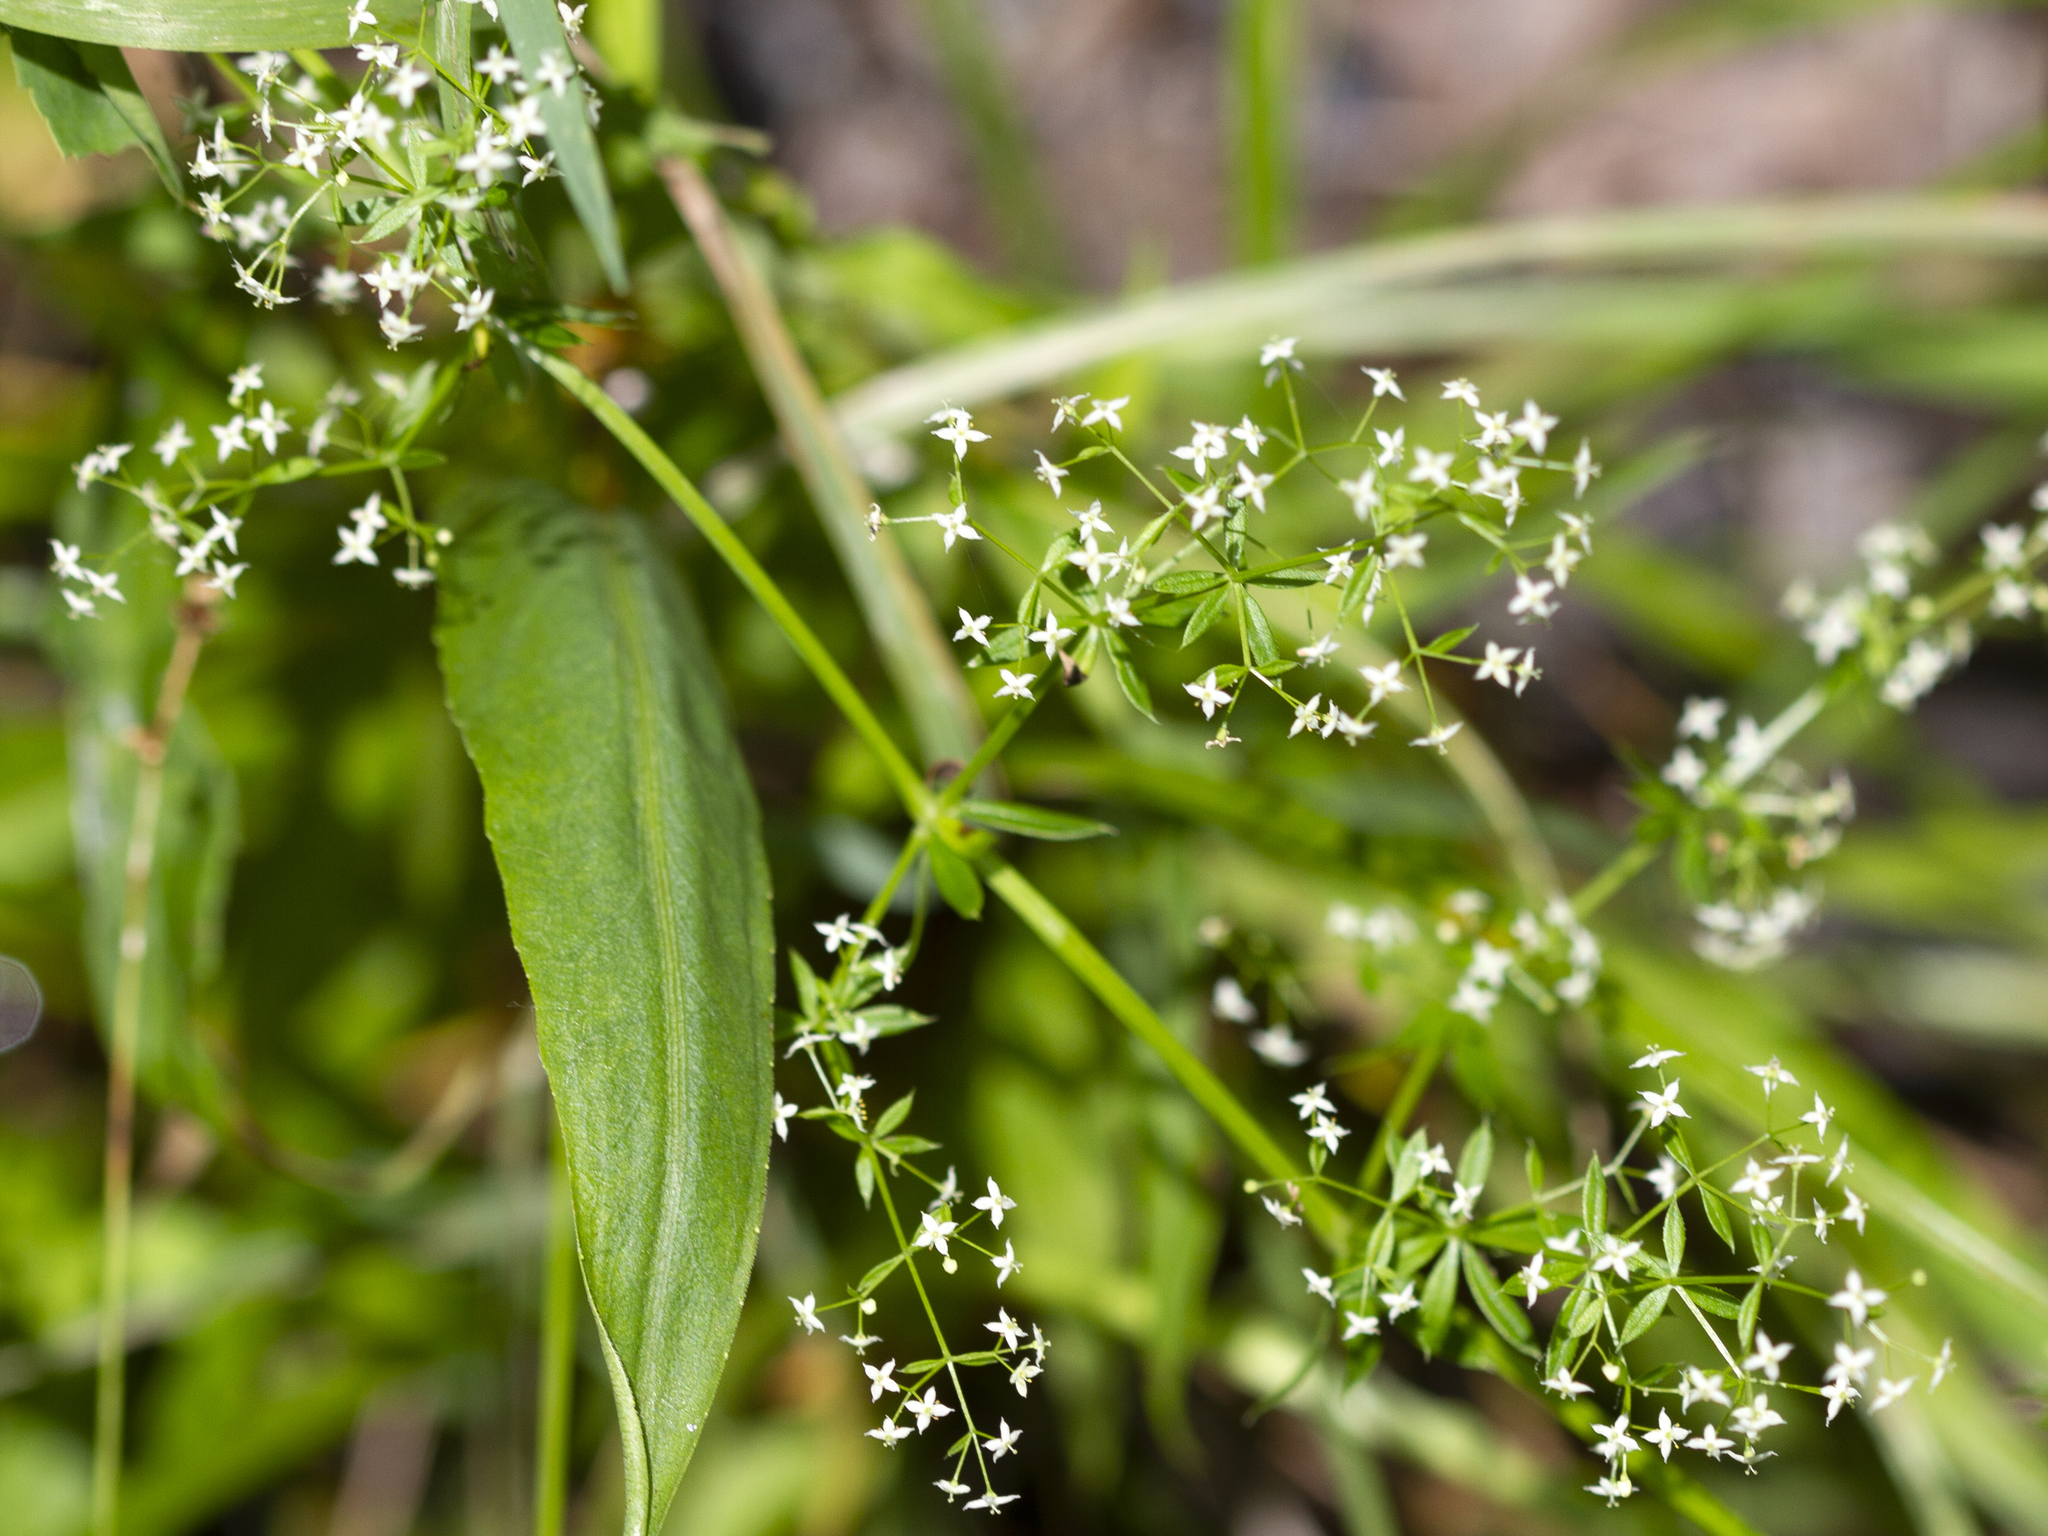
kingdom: Plantae
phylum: Tracheophyta
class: Magnoliopsida
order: Gentianales
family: Rubiaceae
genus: Galium
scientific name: Galium album
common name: White bedstraw
